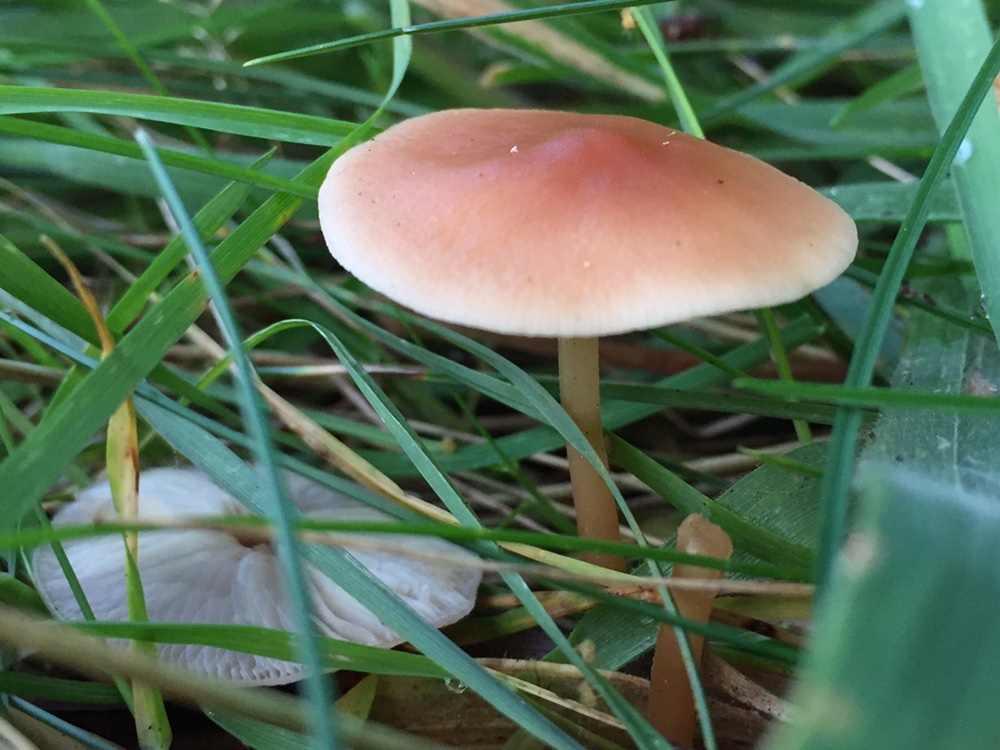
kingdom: Fungi
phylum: Basidiomycota
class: Agaricomycetes
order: Agaricales
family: Omphalotaceae
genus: Gymnopus
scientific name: Gymnopus dryophilus
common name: Penny top
